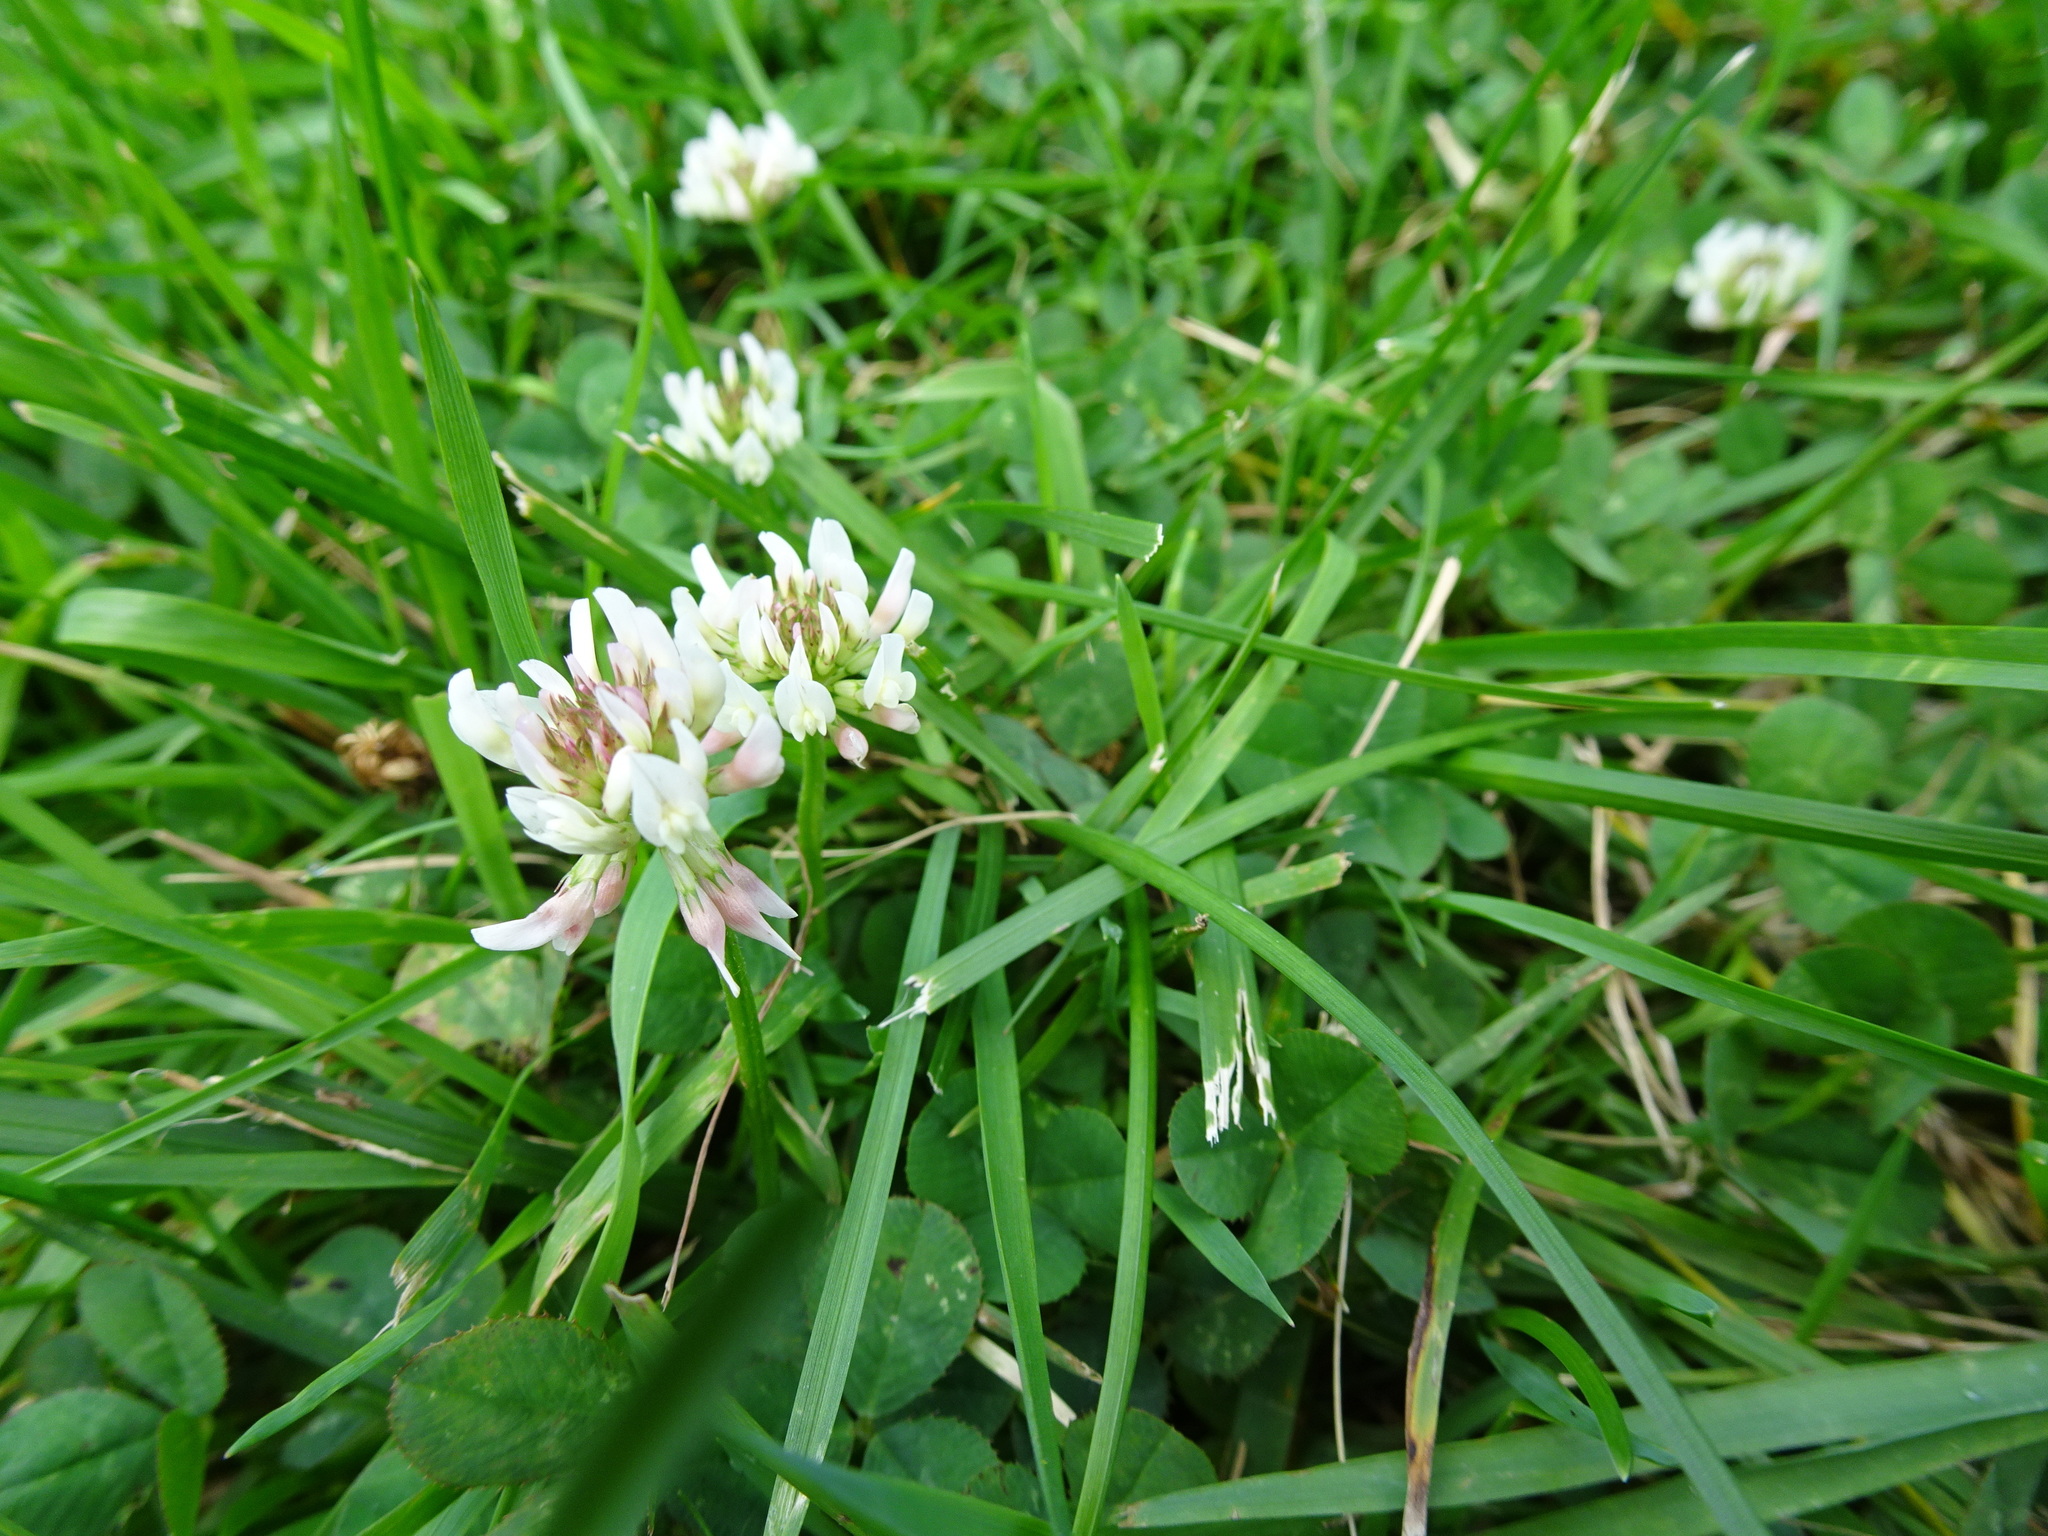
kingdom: Plantae
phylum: Tracheophyta
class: Magnoliopsida
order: Fabales
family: Fabaceae
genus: Trifolium
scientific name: Trifolium repens
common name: White clover
